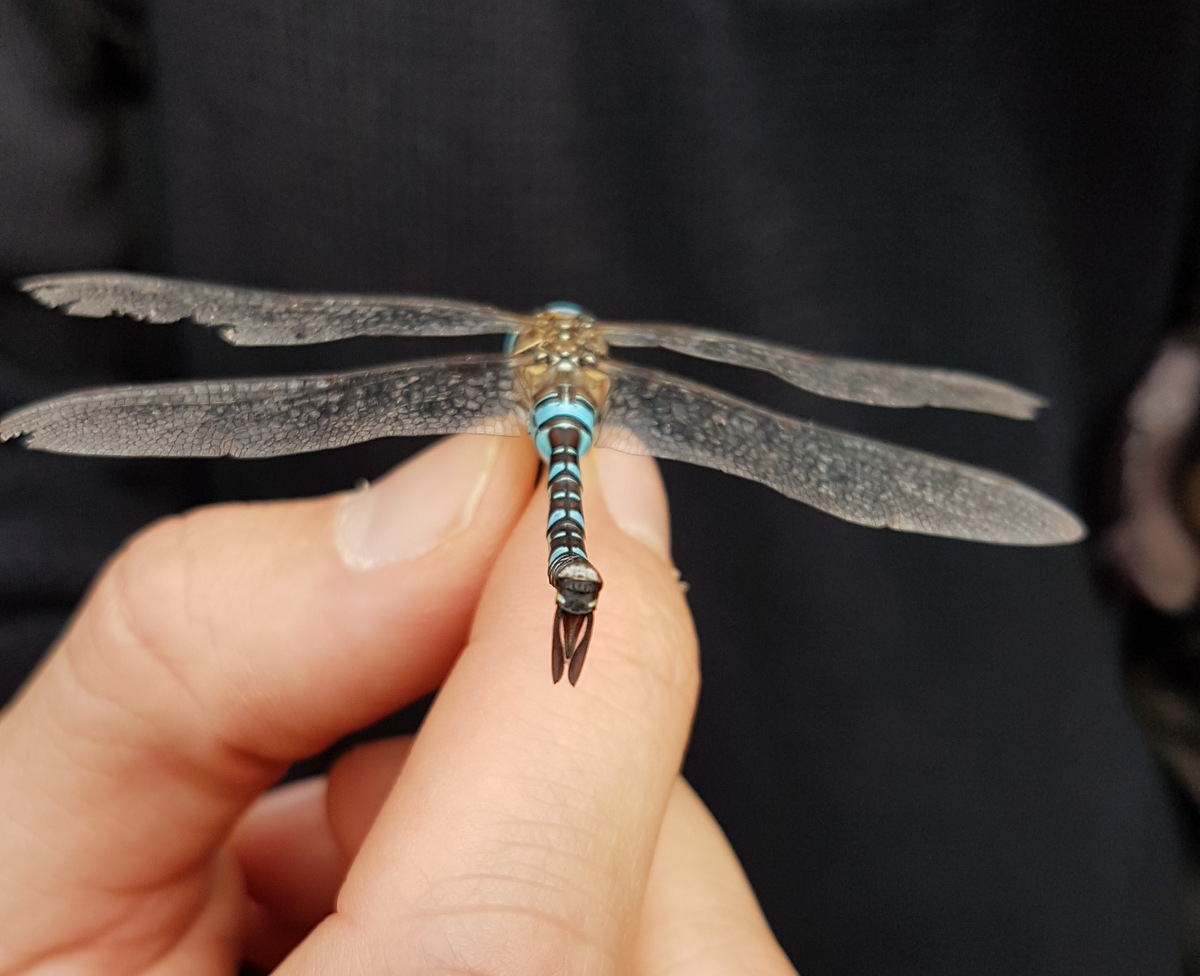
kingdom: Animalia
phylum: Arthropoda
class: Insecta
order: Odonata
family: Aeshnidae
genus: Aeshna
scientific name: Aeshna mixta
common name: Migrant hawker
